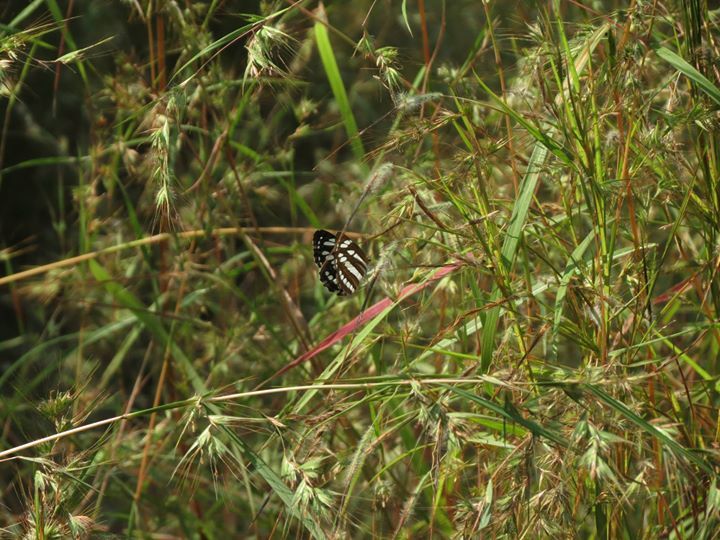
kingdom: Animalia
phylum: Arthropoda
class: Insecta
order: Lepidoptera
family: Nymphalidae
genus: Neptis
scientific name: Neptis hylas
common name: Common sailer
